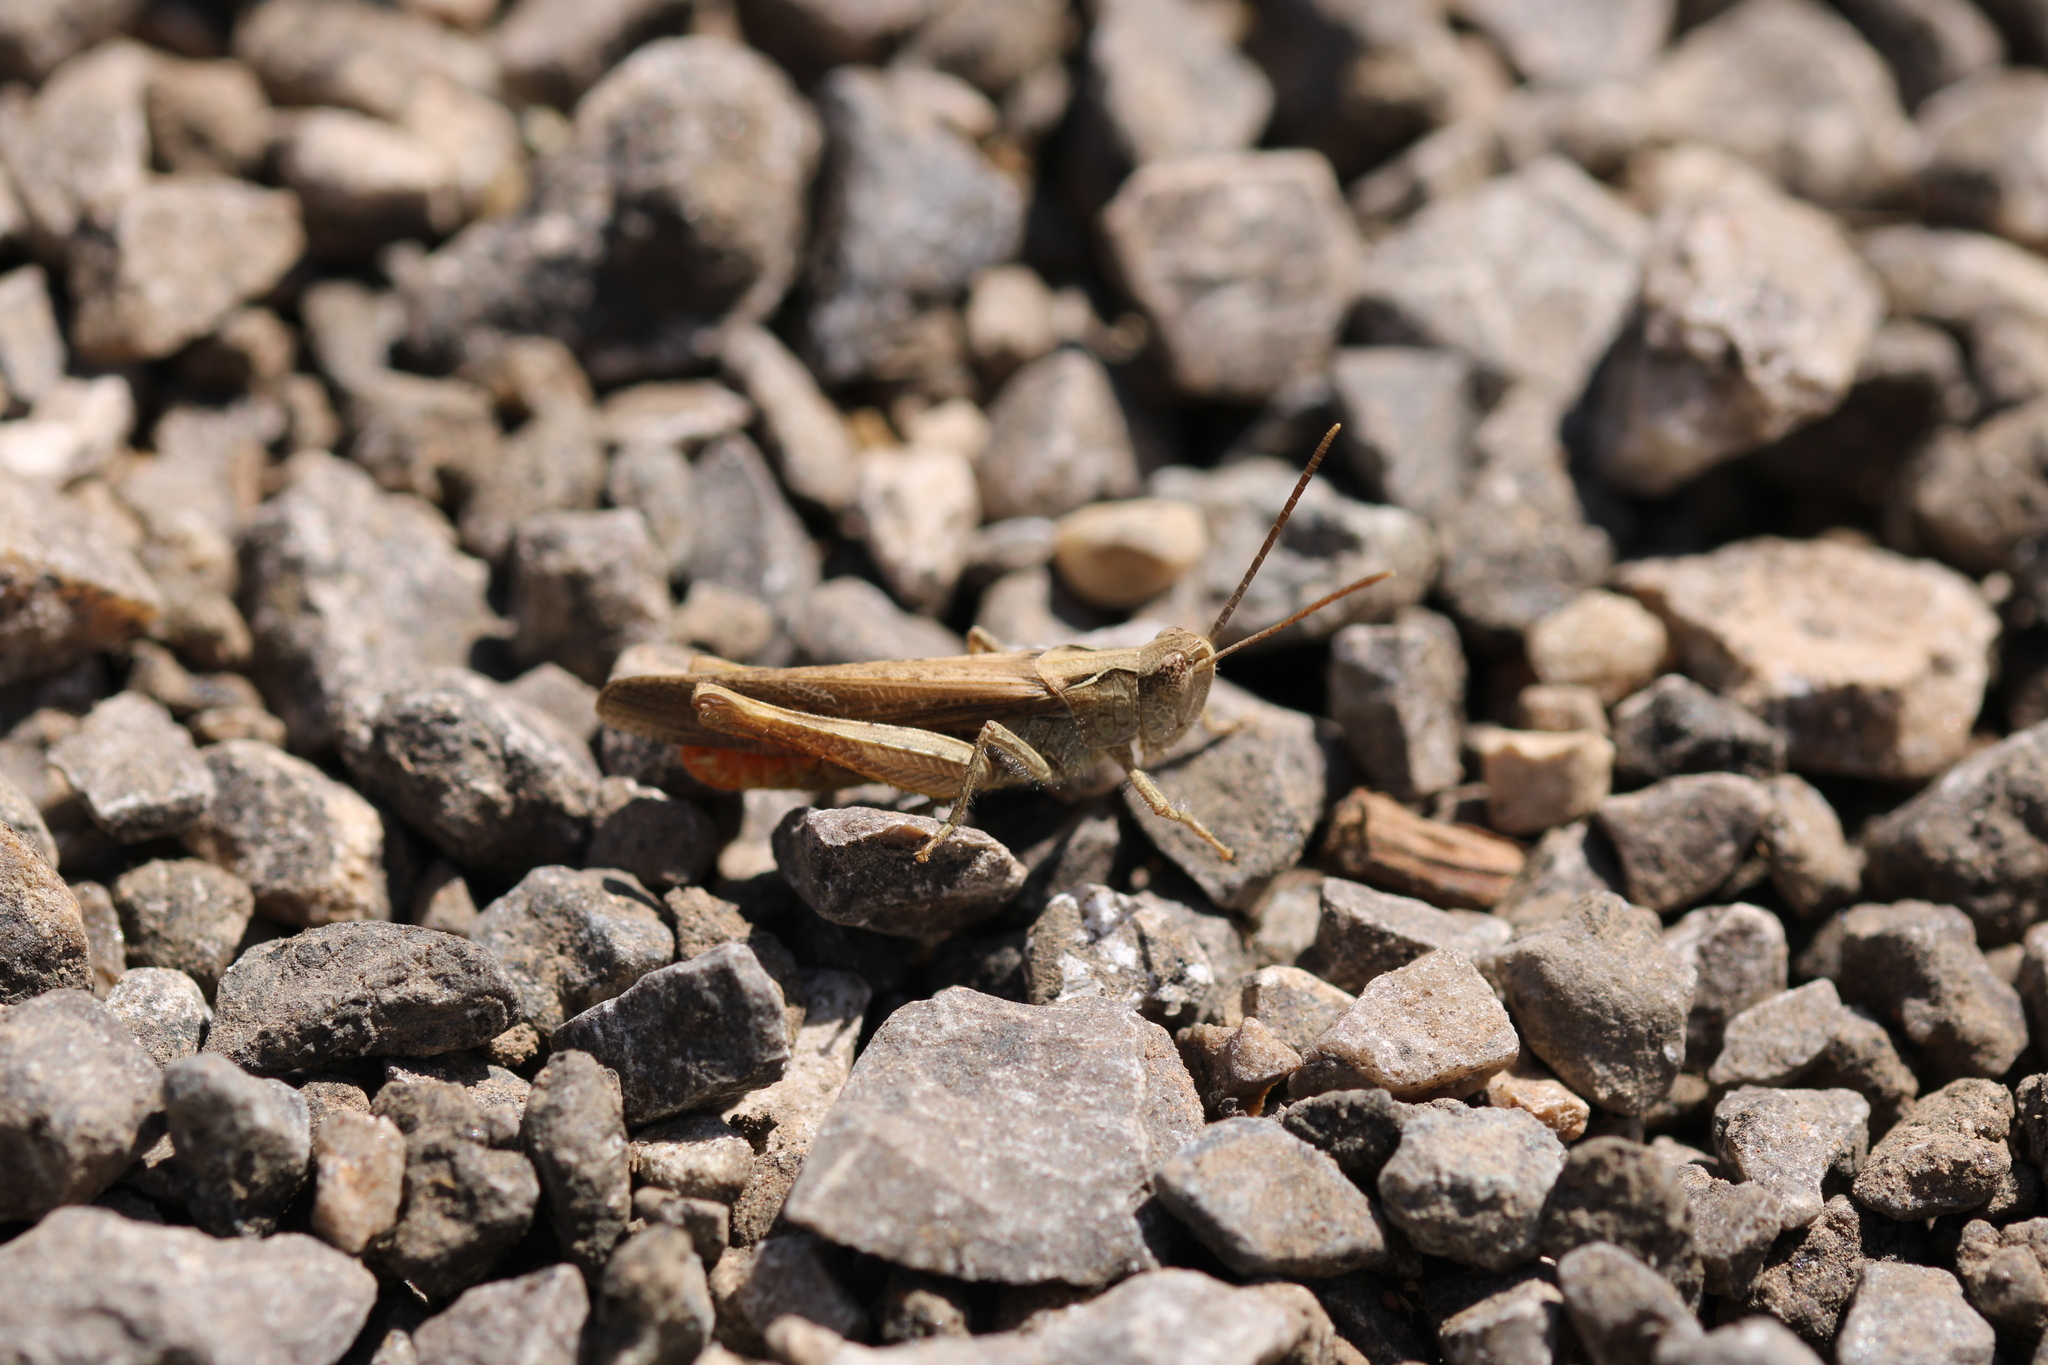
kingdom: Animalia
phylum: Arthropoda
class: Insecta
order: Orthoptera
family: Acrididae
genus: Chorthippus
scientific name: Chorthippus brunneus
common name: Field grasshopper
